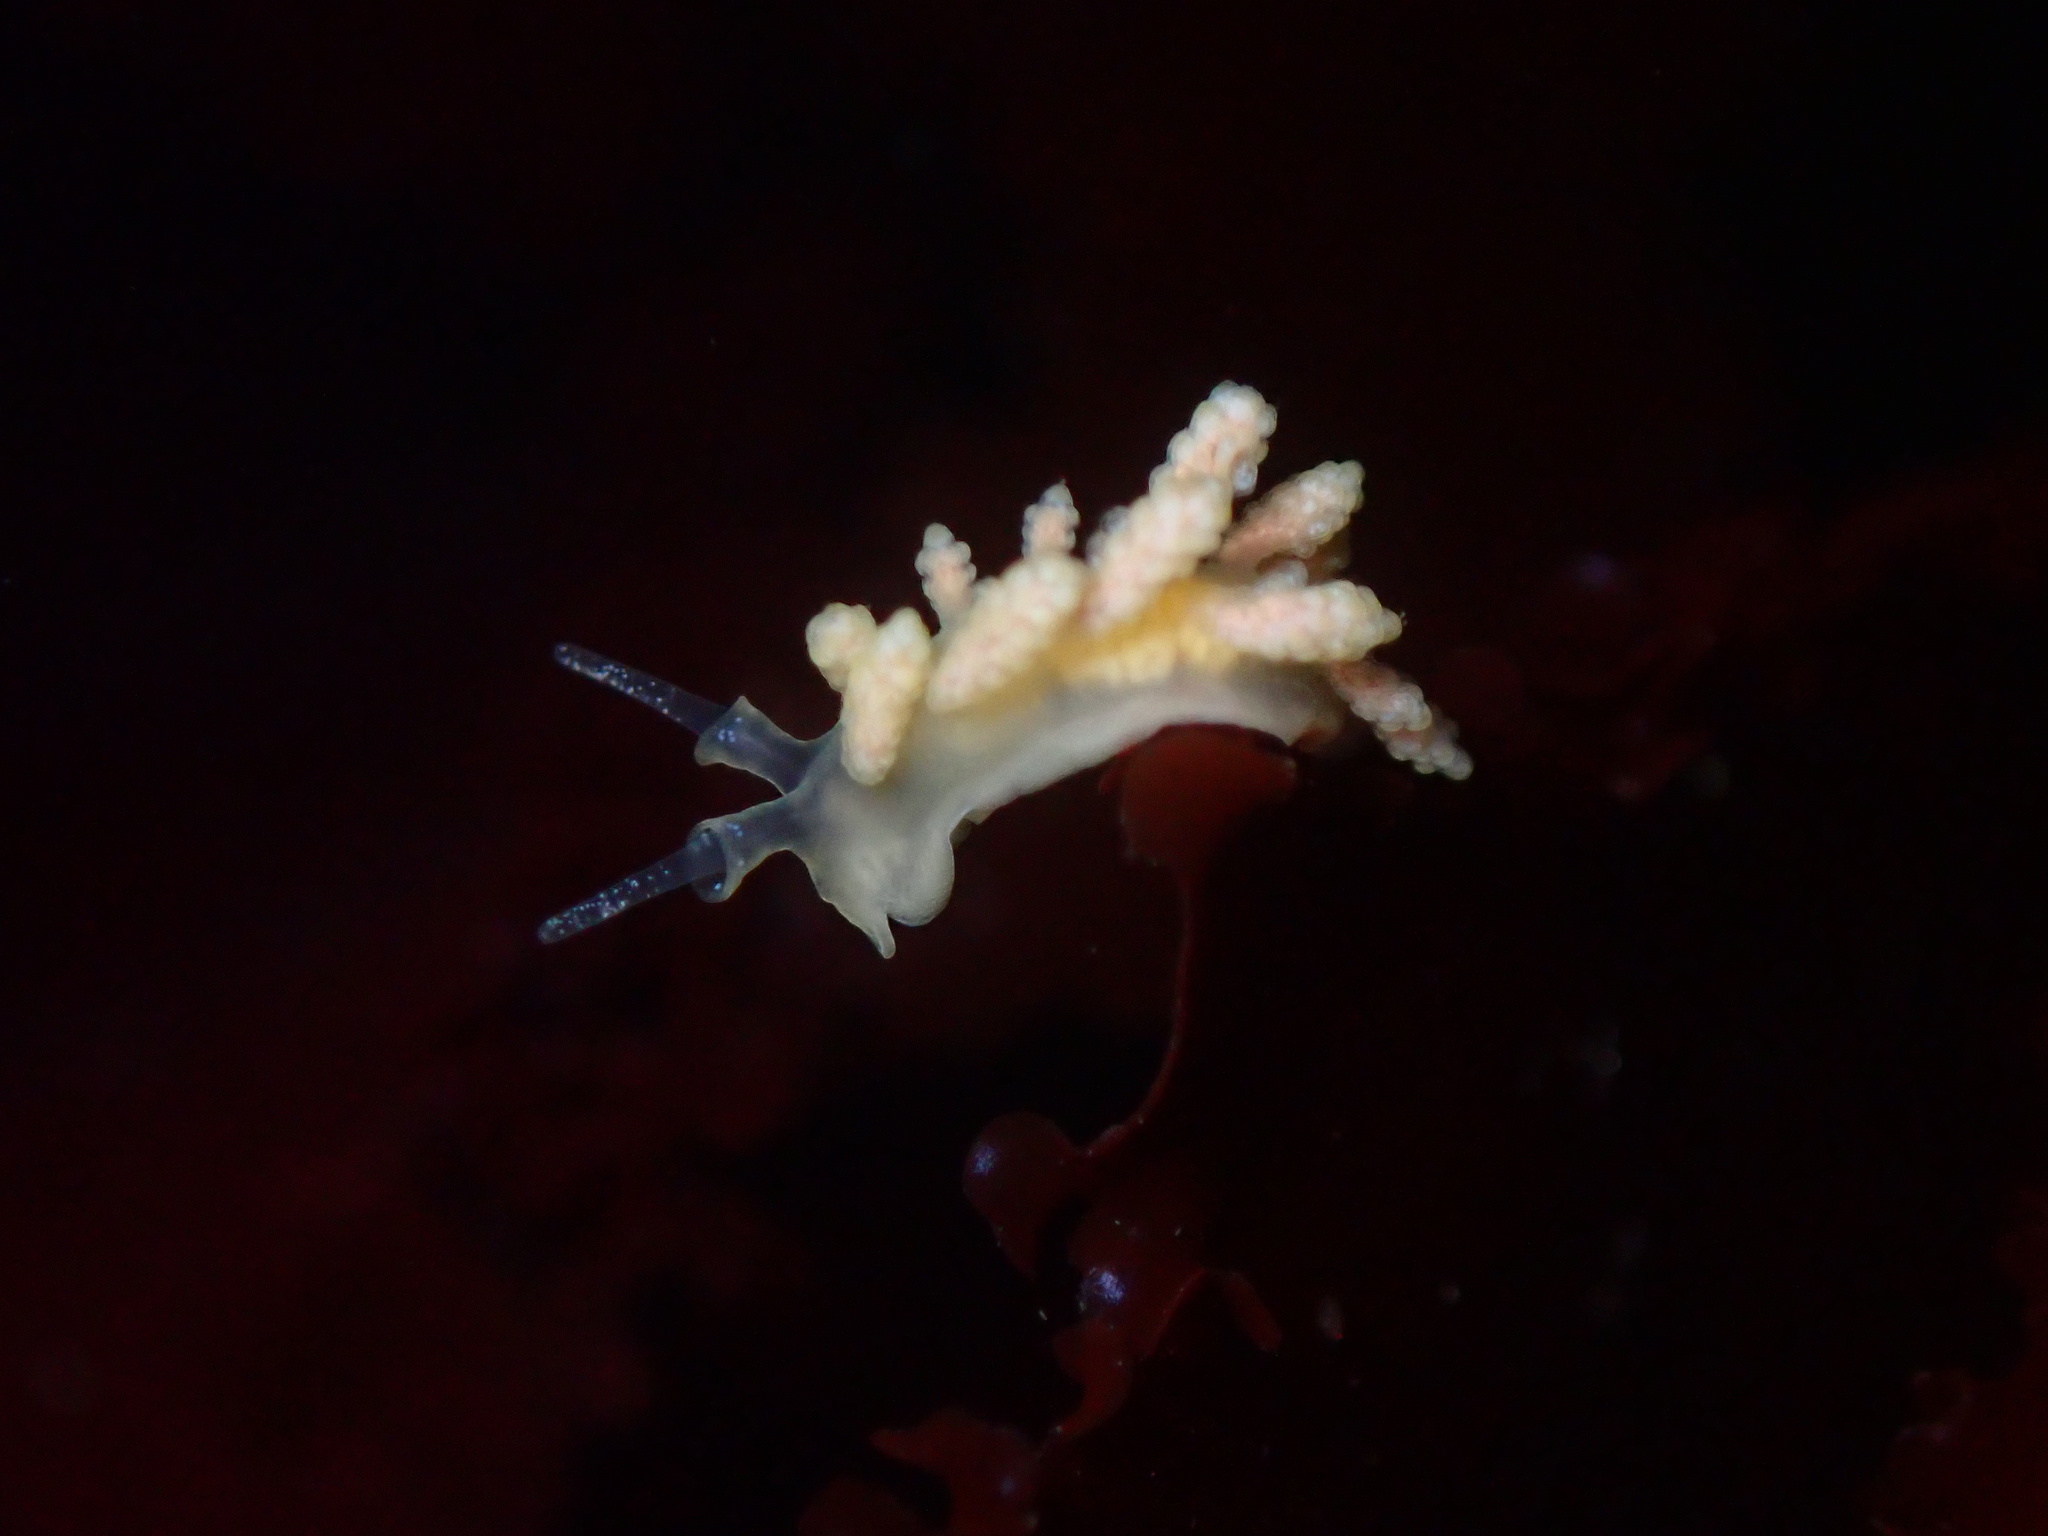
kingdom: Animalia
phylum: Mollusca
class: Gastropoda
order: Nudibranchia
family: Dotidae
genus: Doto
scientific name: Doto amyra
